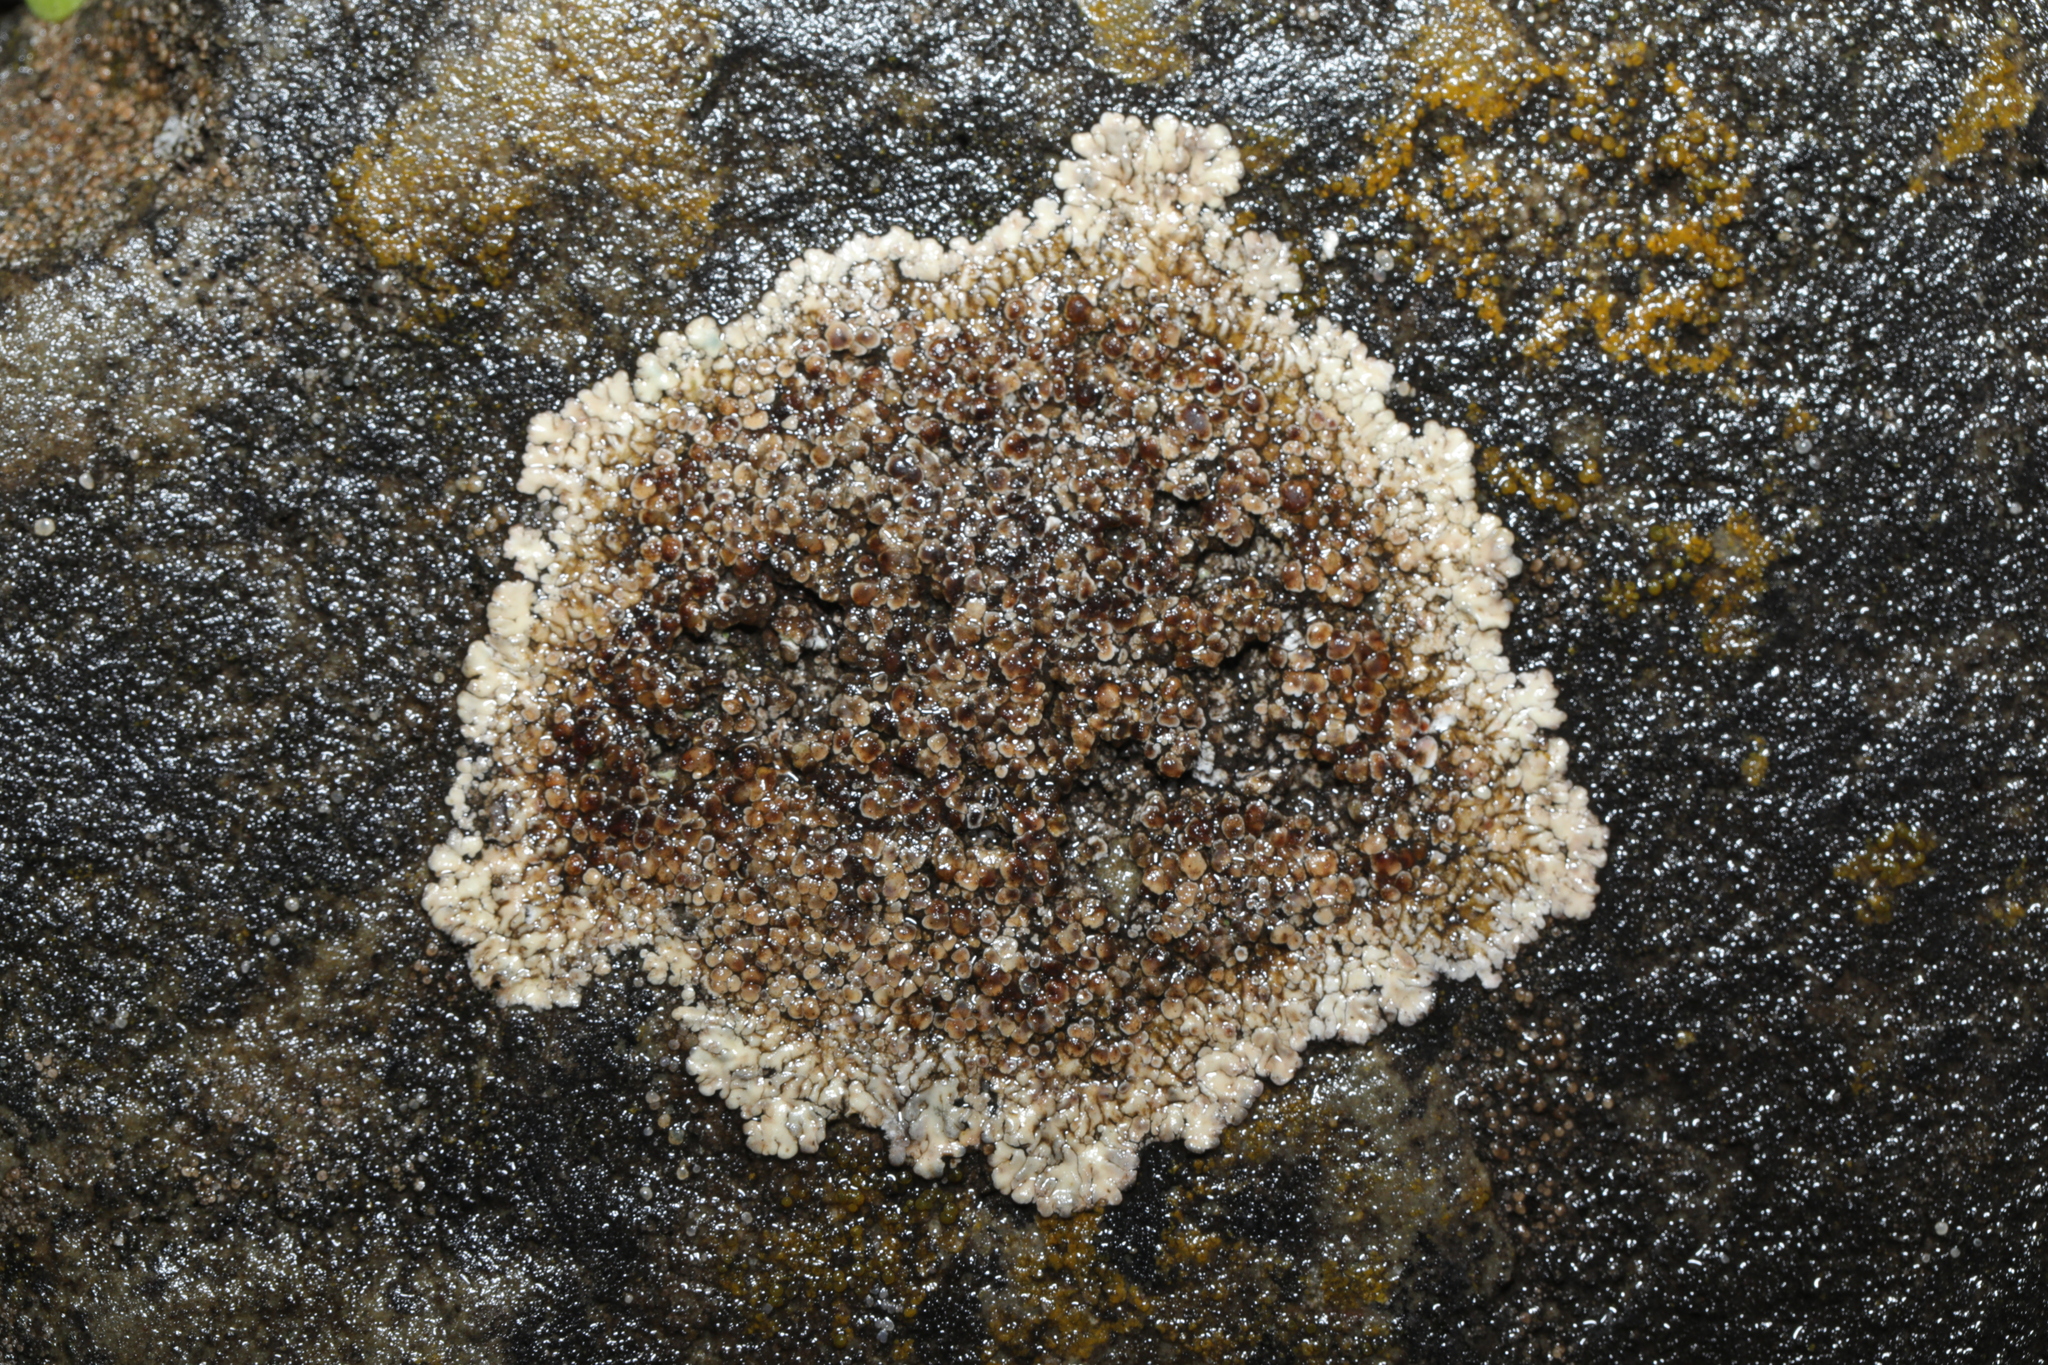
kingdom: Fungi
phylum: Ascomycota
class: Lecanoromycetes
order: Lecanorales
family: Lecanoraceae
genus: Protoparmeliopsis
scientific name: Protoparmeliopsis muralis
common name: Stonewall rim lichen
